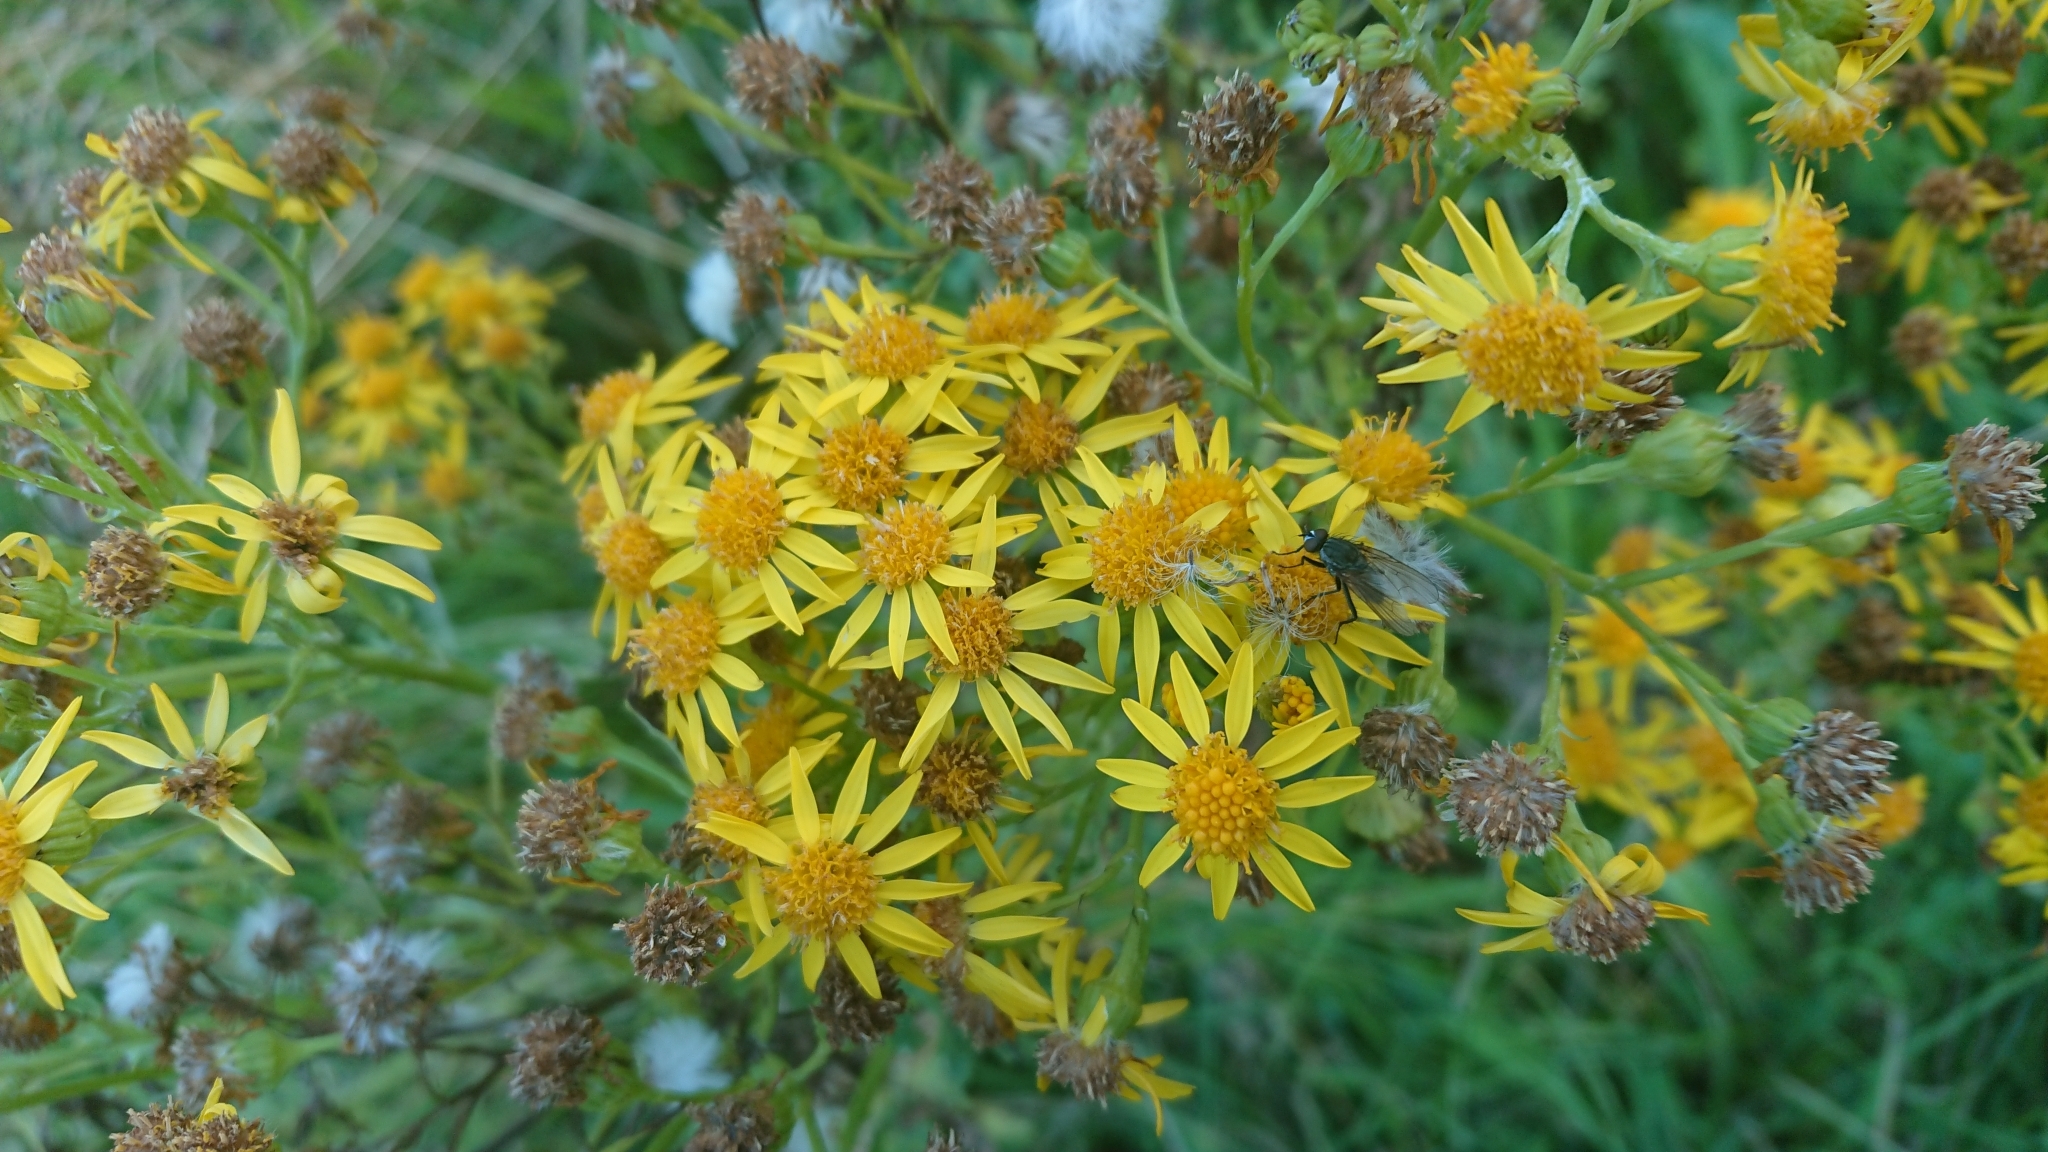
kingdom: Plantae
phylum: Tracheophyta
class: Magnoliopsida
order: Asterales
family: Asteraceae
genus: Jacobaea
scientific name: Jacobaea vulgaris
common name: Stinking willie
